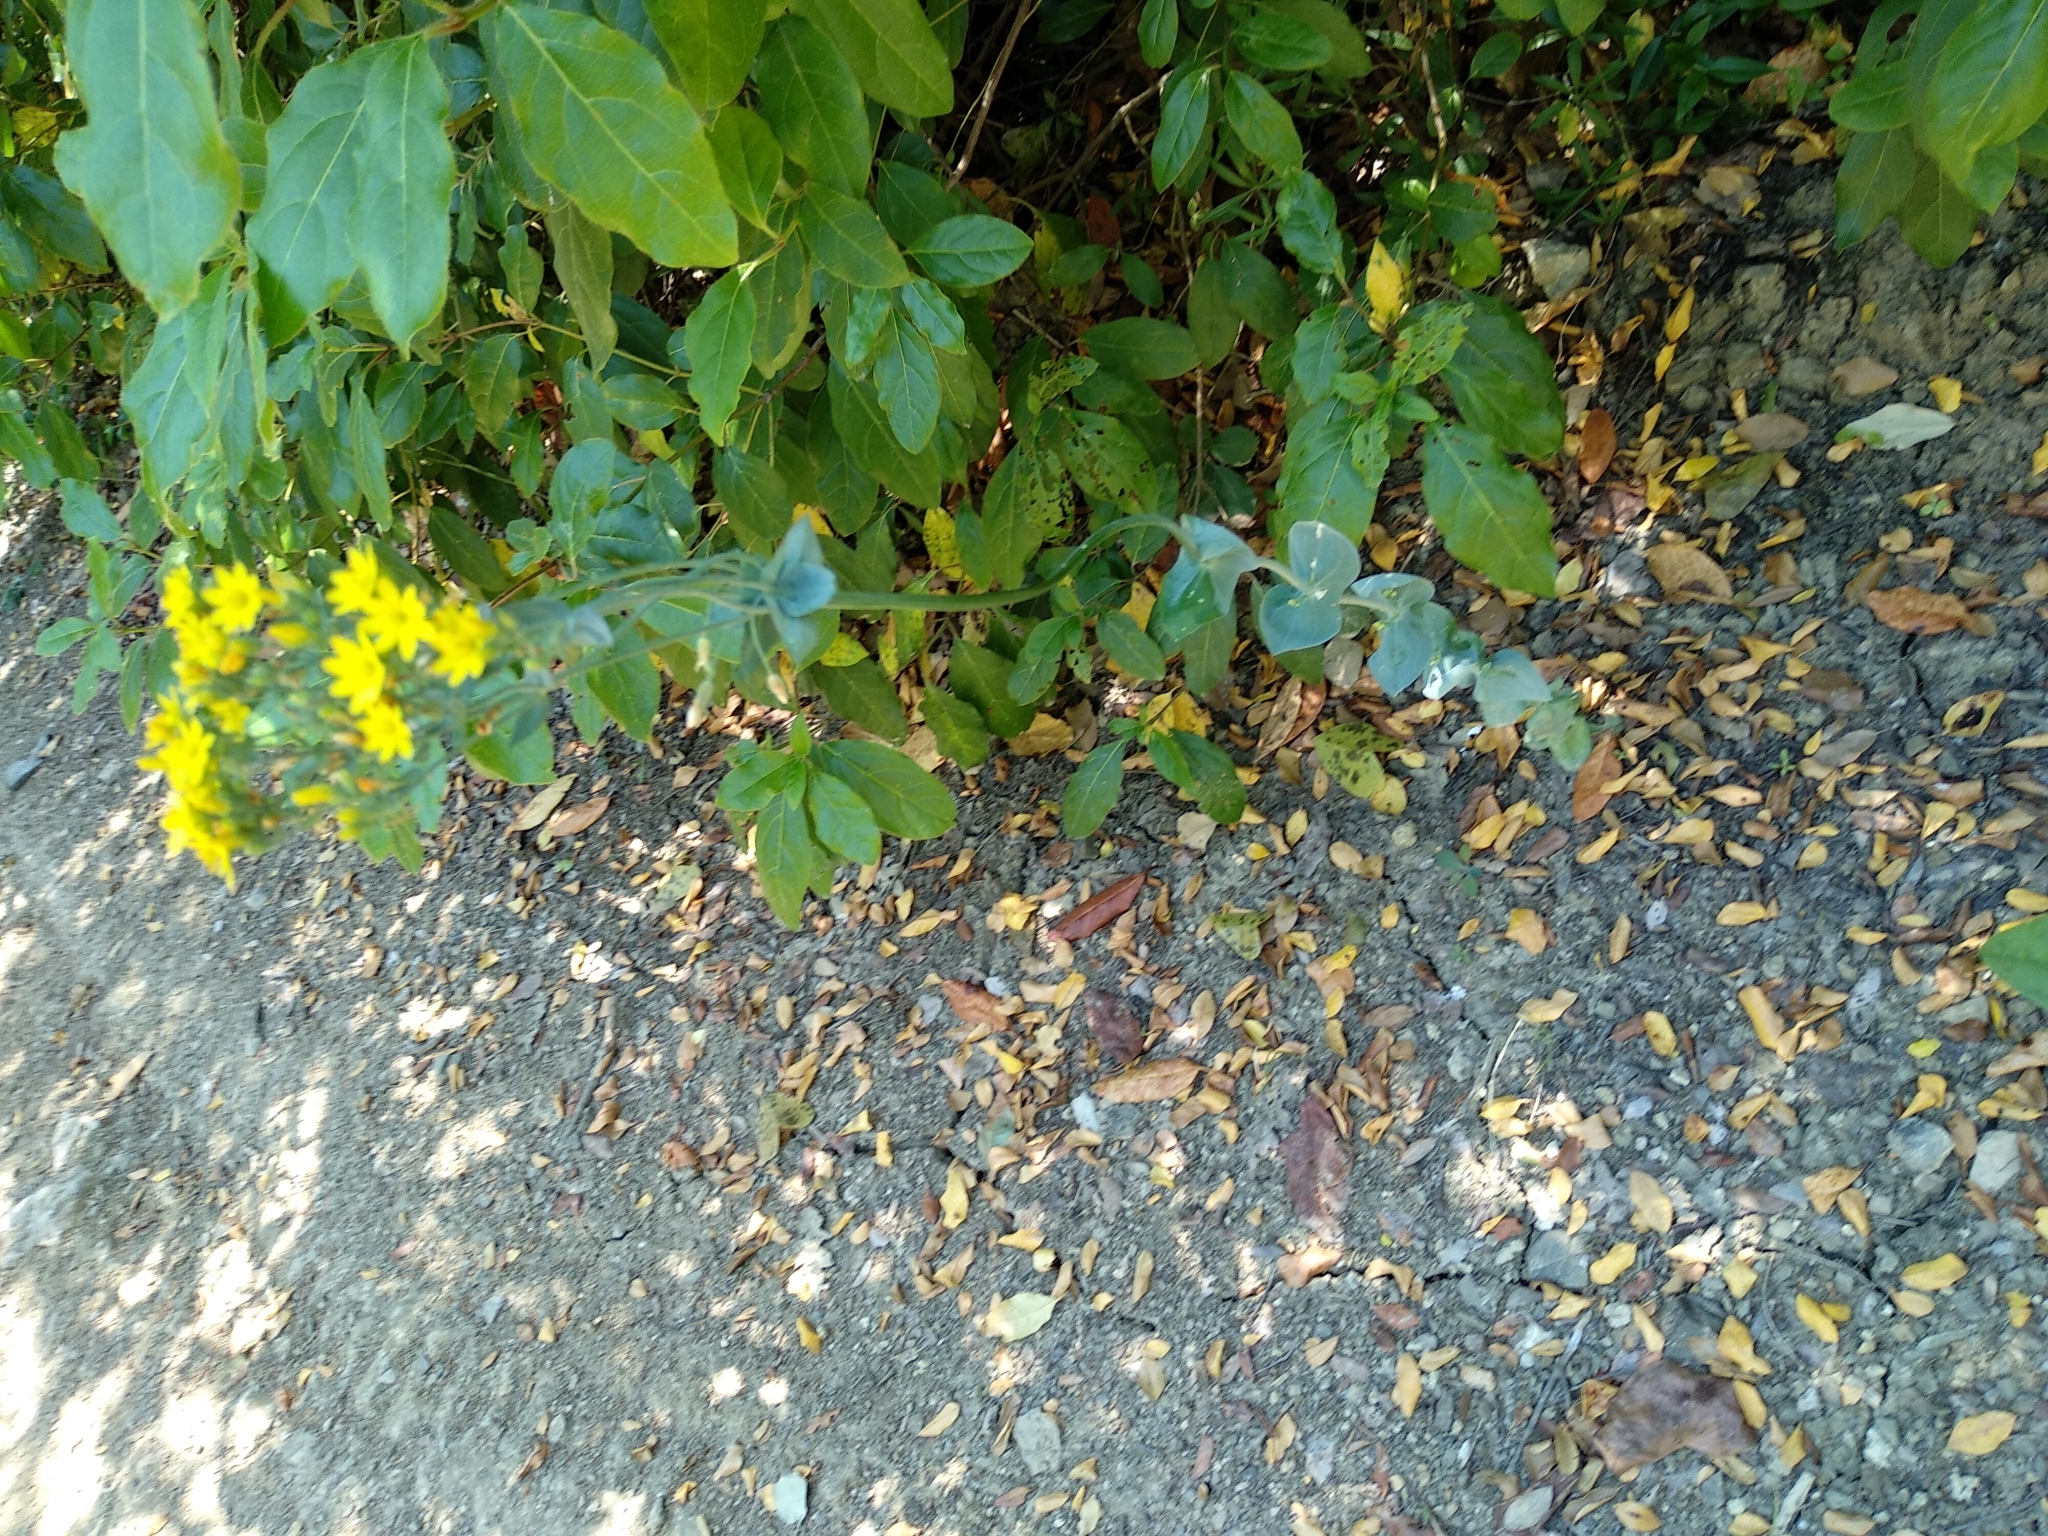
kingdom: Plantae
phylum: Tracheophyta
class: Magnoliopsida
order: Gentianales
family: Gentianaceae
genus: Blackstonia
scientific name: Blackstonia perfoliata
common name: Yellow-wort
